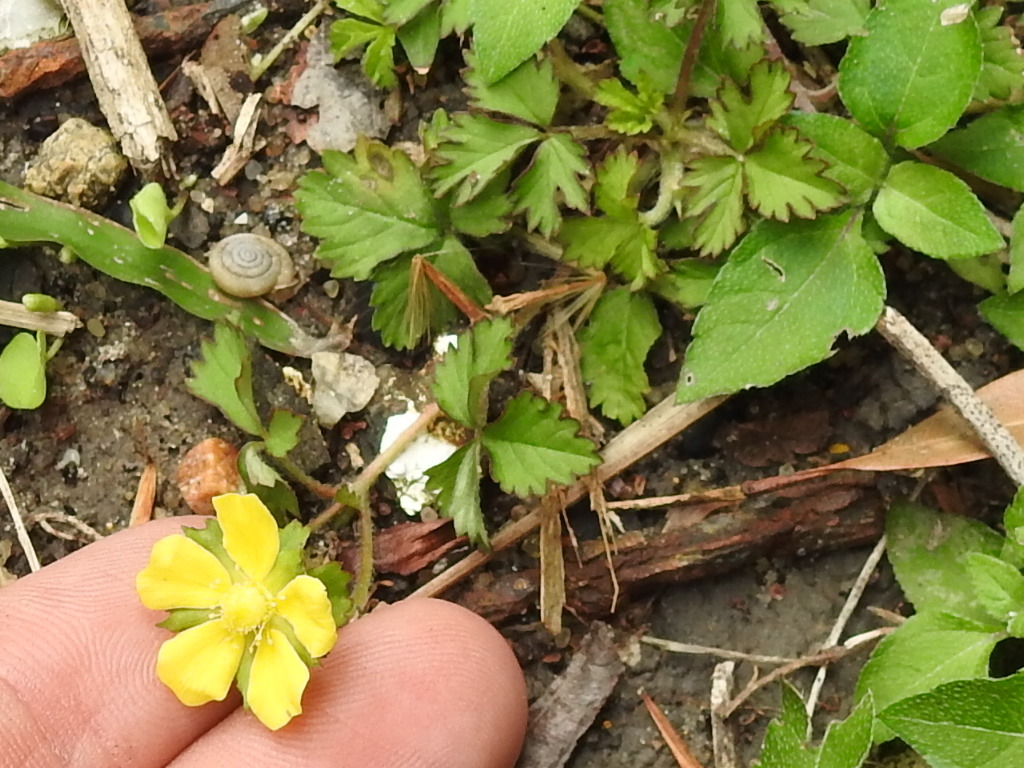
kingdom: Plantae
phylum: Tracheophyta
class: Magnoliopsida
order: Rosales
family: Rosaceae
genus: Potentilla
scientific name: Potentilla indica
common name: Yellow-flowered strawberry
